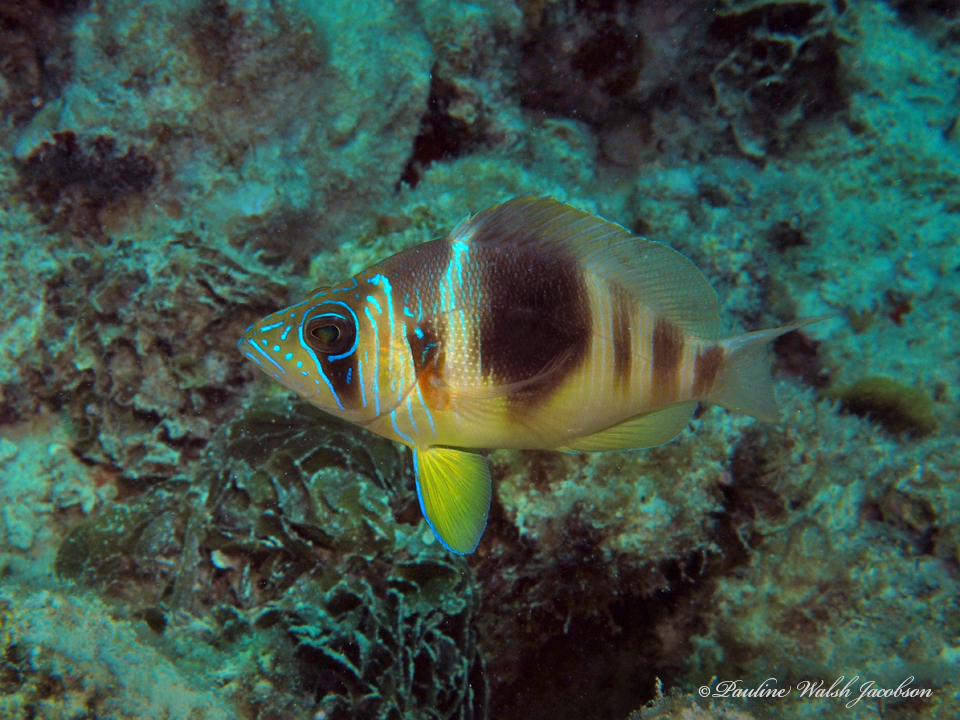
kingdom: Animalia
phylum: Chordata
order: Perciformes
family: Serranidae
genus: Hypoplectrus
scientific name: Hypoplectrus puella
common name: Barred hamlet
